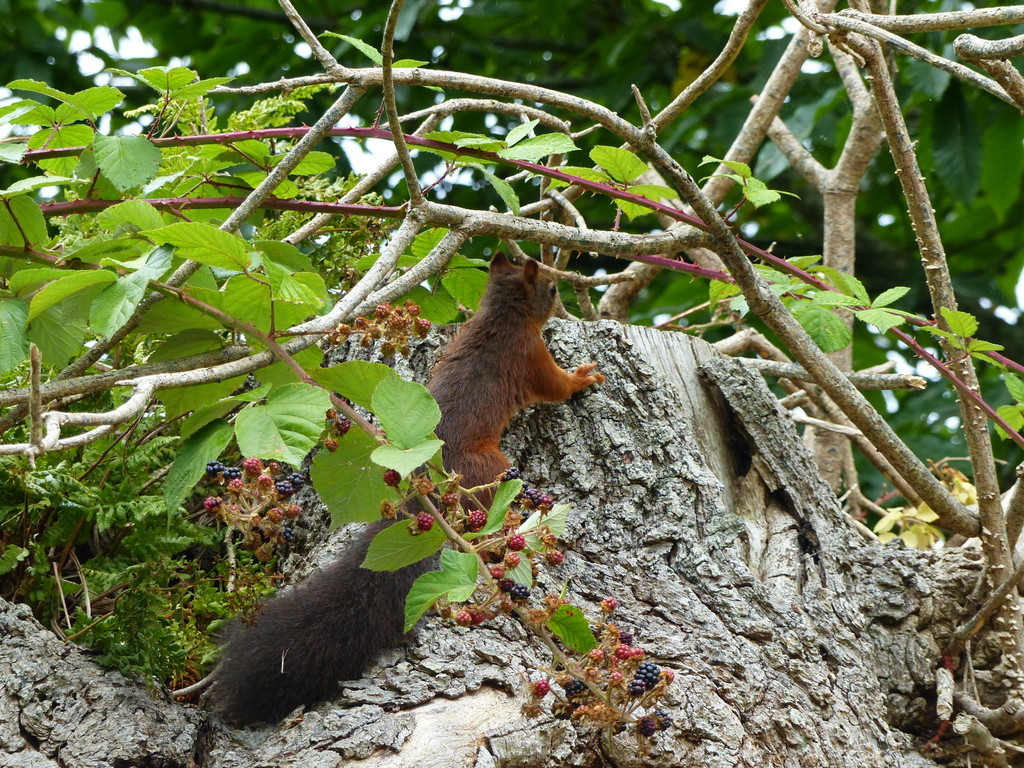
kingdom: Animalia
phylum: Chordata
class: Mammalia
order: Rodentia
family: Sciuridae
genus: Sciurus
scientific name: Sciurus vulgaris
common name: Eurasian red squirrel
